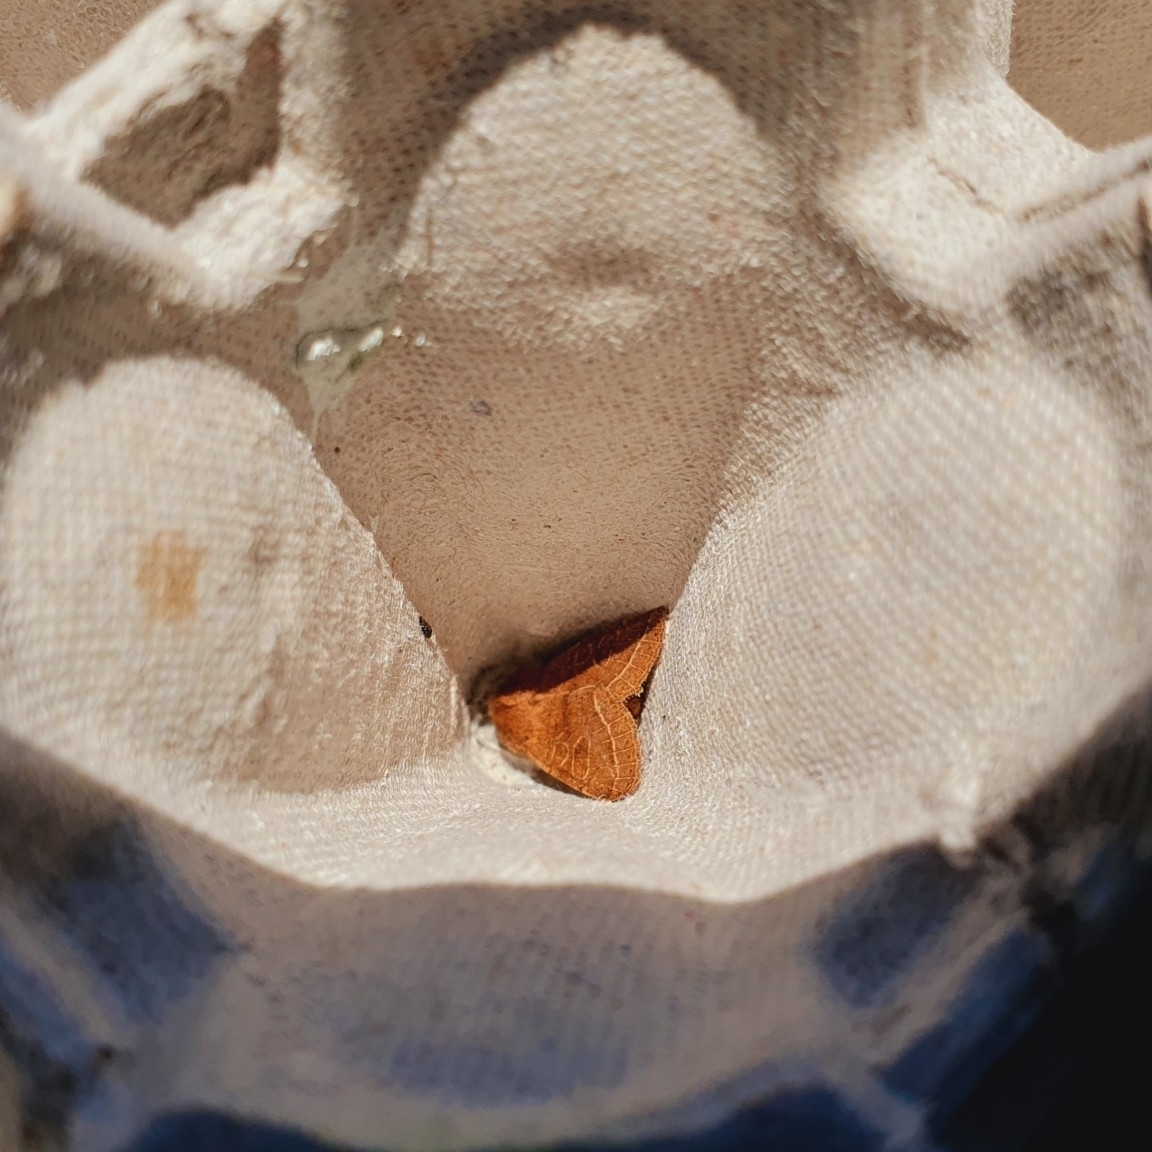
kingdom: Animalia
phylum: Arthropoda
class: Insecta
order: Lepidoptera
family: Noctuidae
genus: Orthosia
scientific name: Orthosia cerasi
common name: Common quaker
